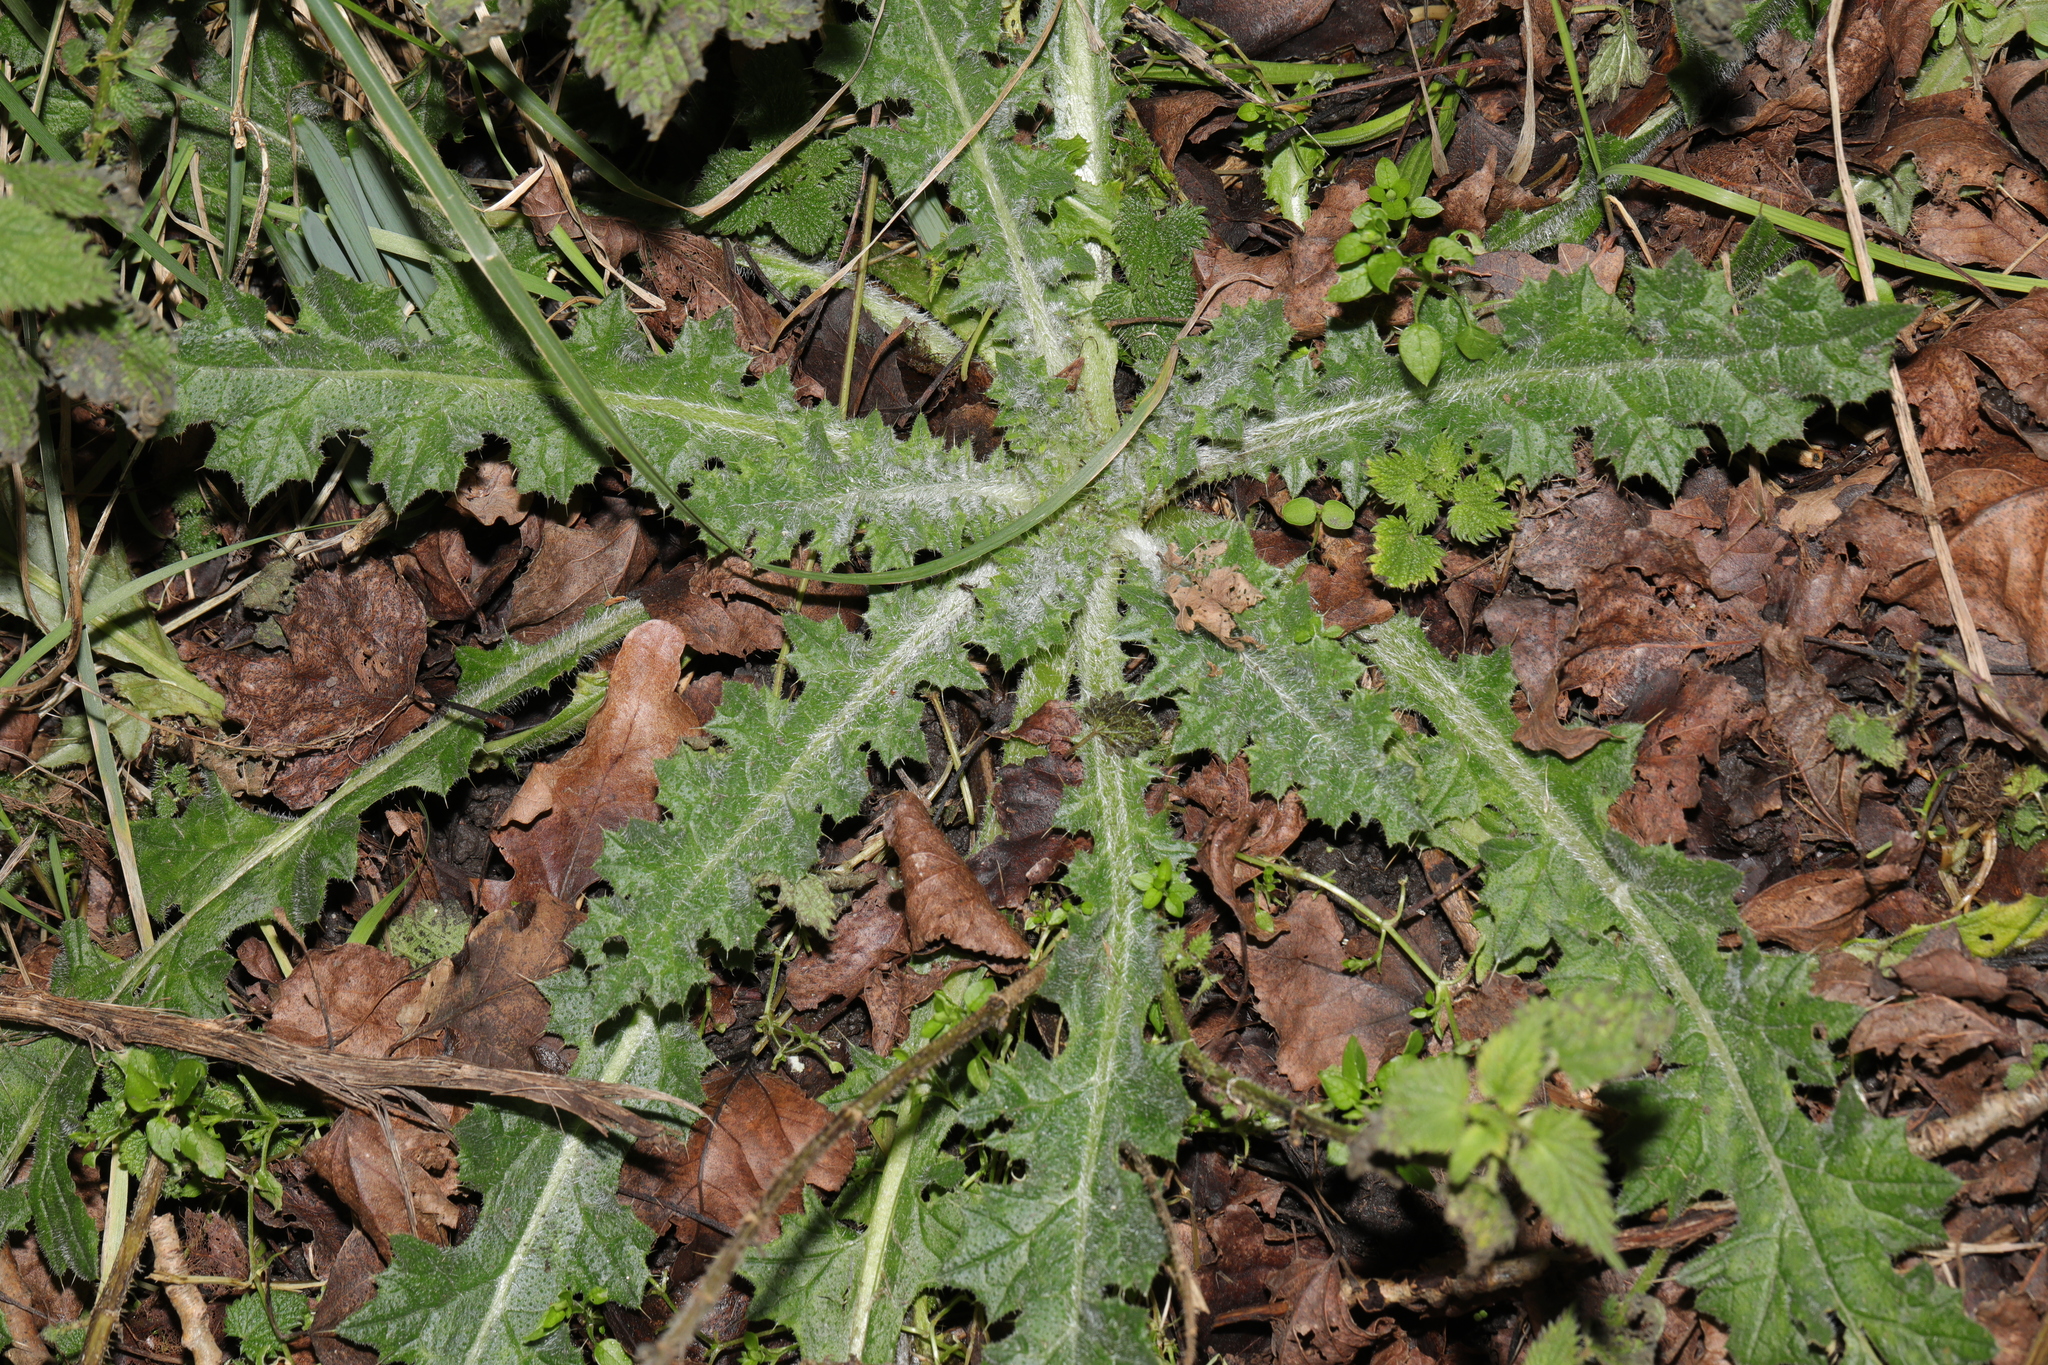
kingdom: Plantae
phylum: Tracheophyta
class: Magnoliopsida
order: Asterales
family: Asteraceae
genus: Cirsium
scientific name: Cirsium vulgare
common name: Bull thistle
